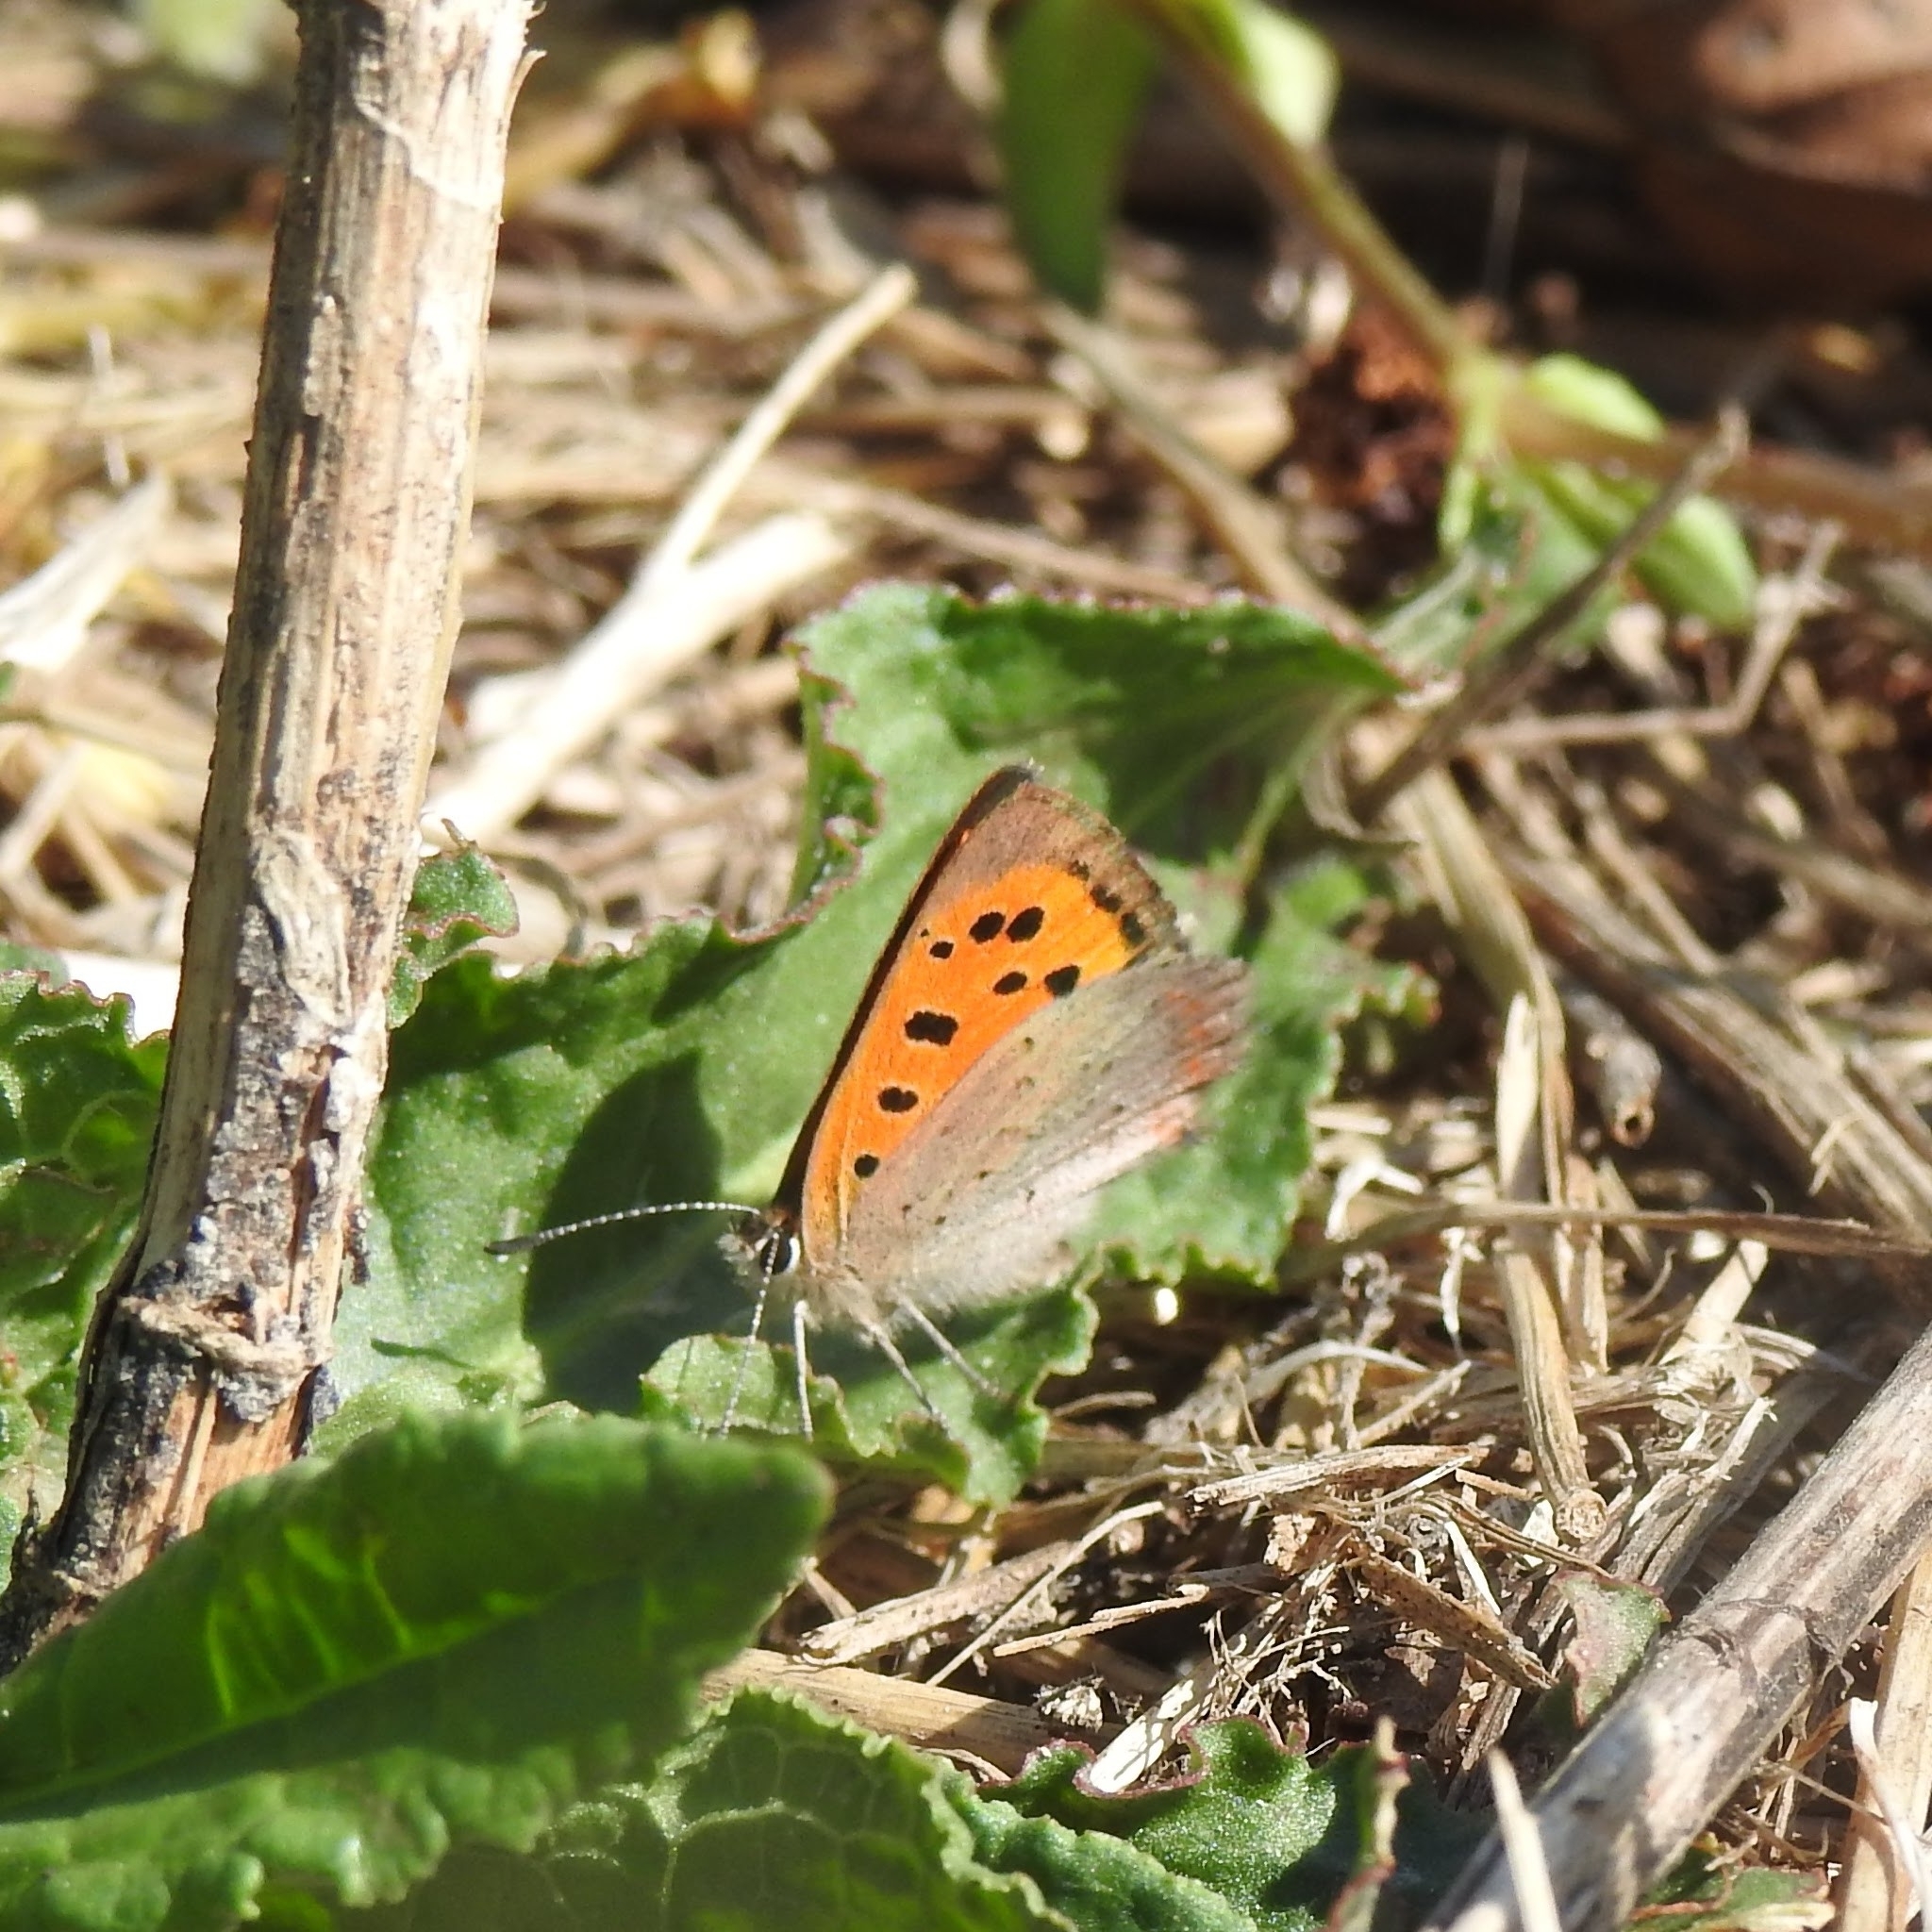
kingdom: Animalia
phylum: Arthropoda
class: Insecta
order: Lepidoptera
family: Lycaenidae
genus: Lycaena
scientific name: Lycaena phlaeas
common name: Small copper
